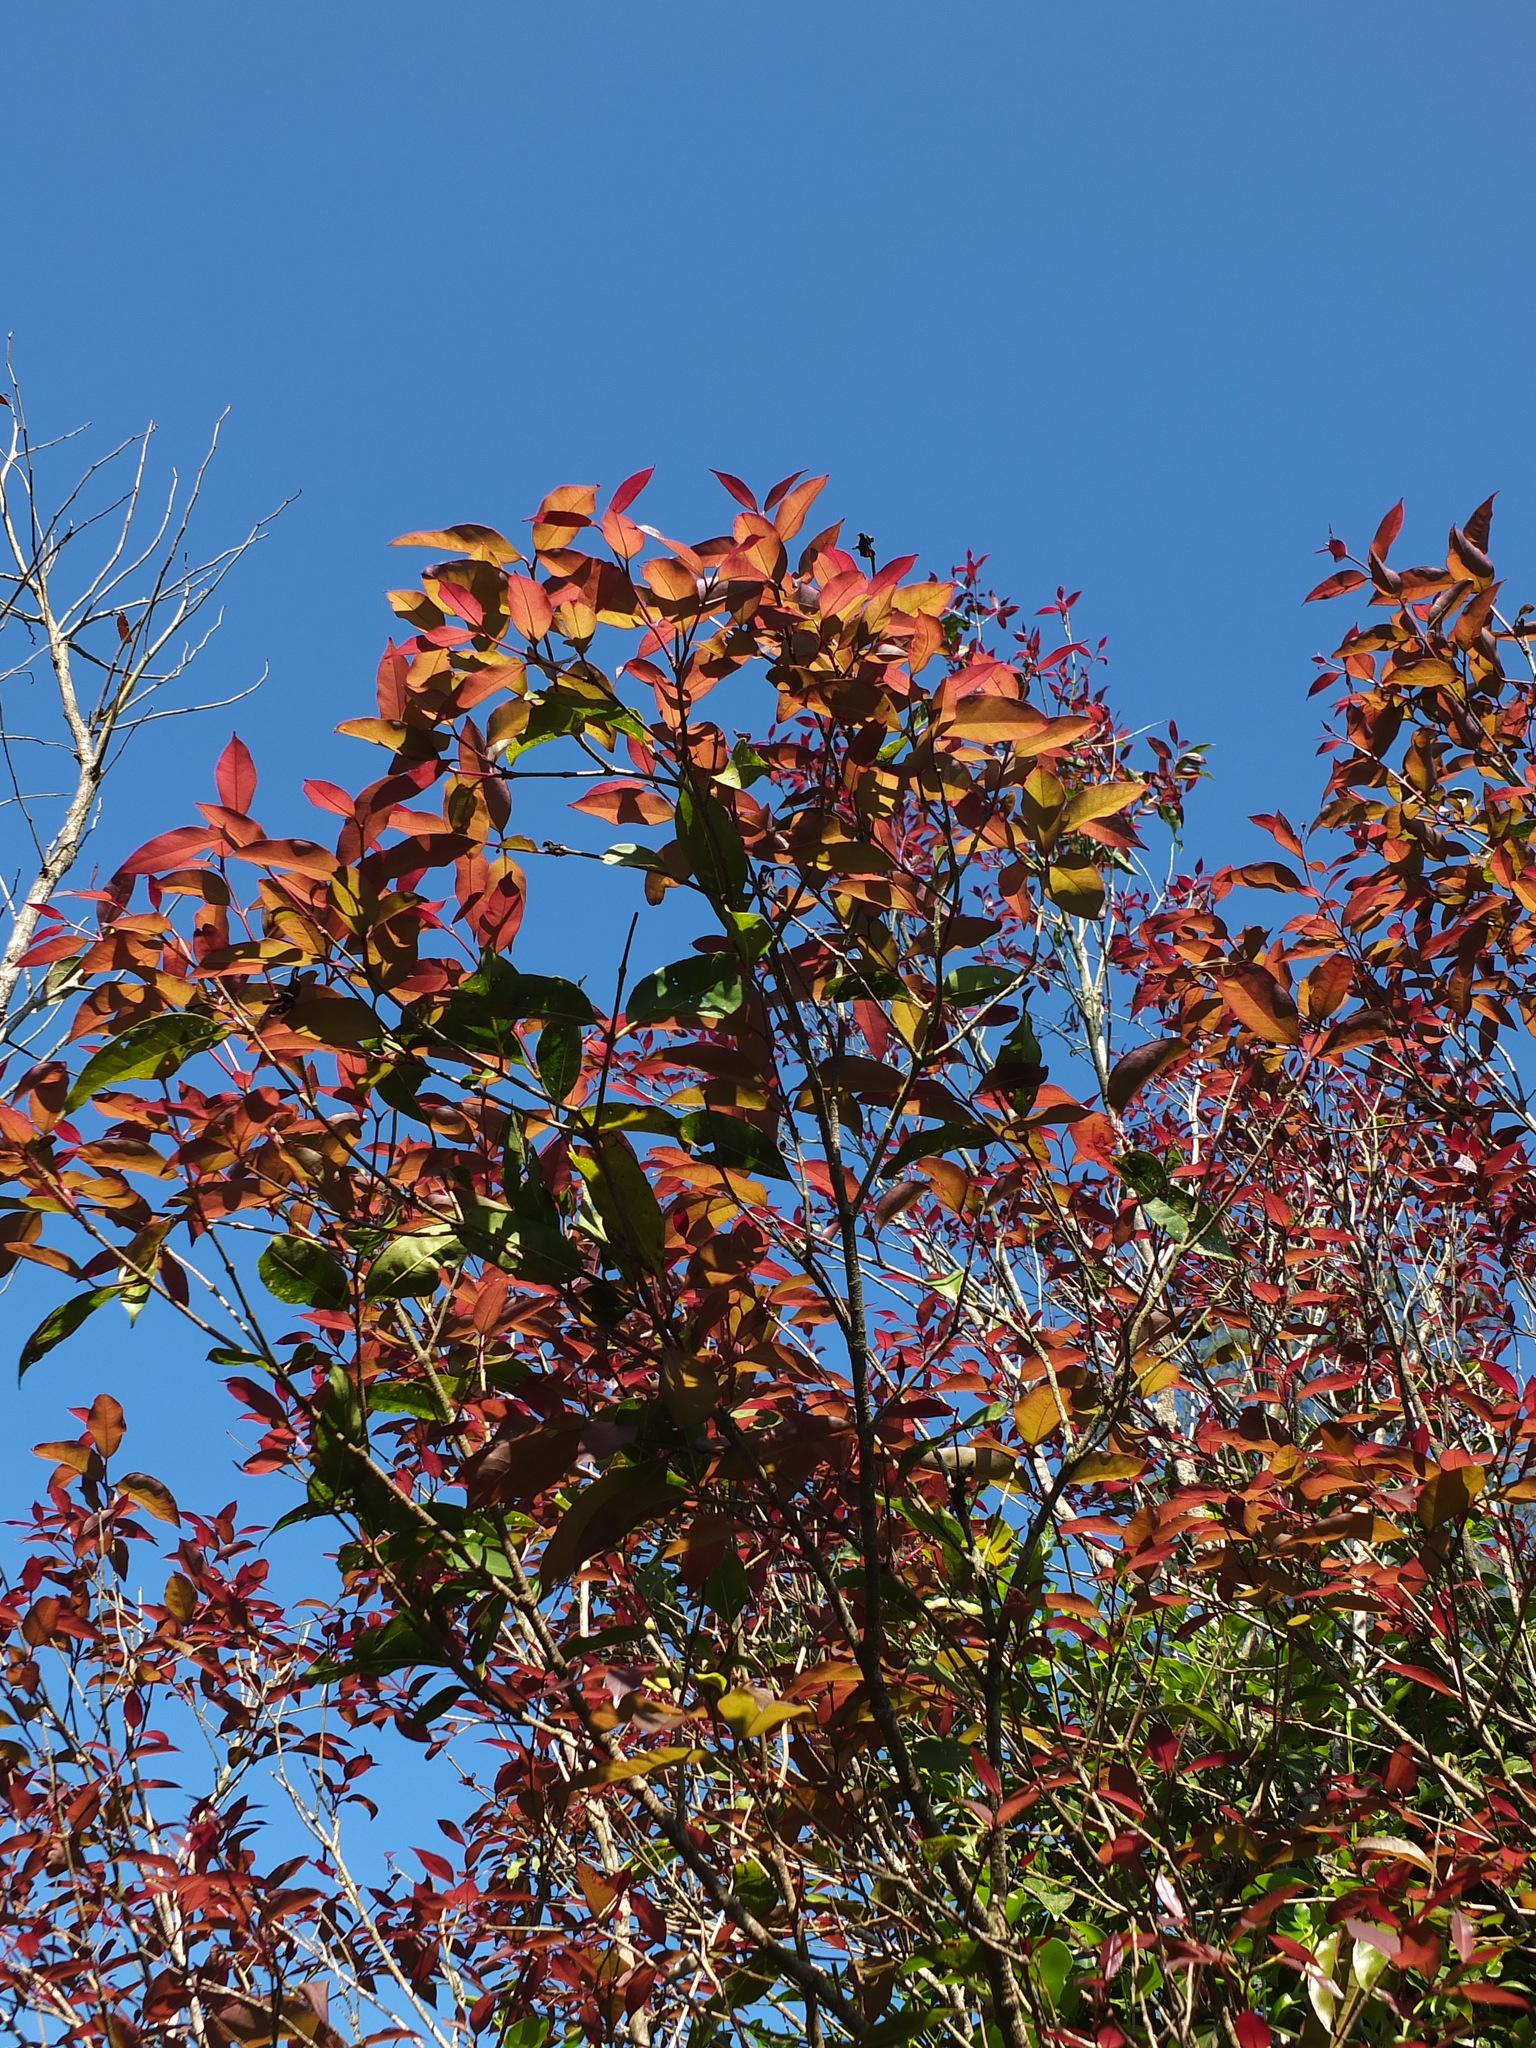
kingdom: Plantae
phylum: Tracheophyta
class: Magnoliopsida
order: Lamiales
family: Oleaceae
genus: Tetrapilus
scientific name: Tetrapilus dioicus
